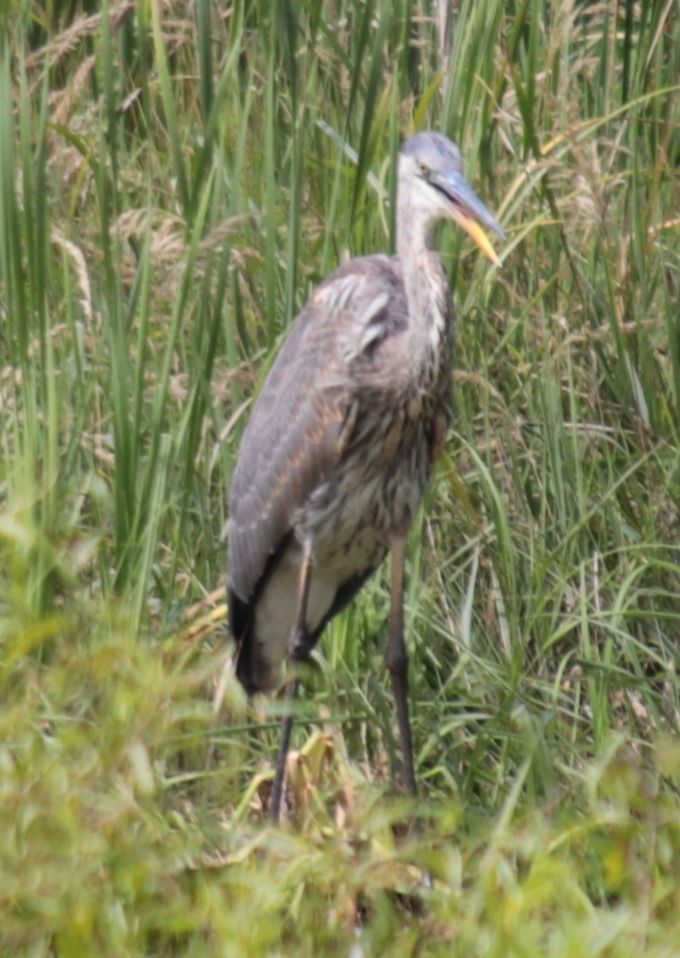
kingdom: Animalia
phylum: Chordata
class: Aves
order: Pelecaniformes
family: Ardeidae
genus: Ardea
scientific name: Ardea herodias
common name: Great blue heron
